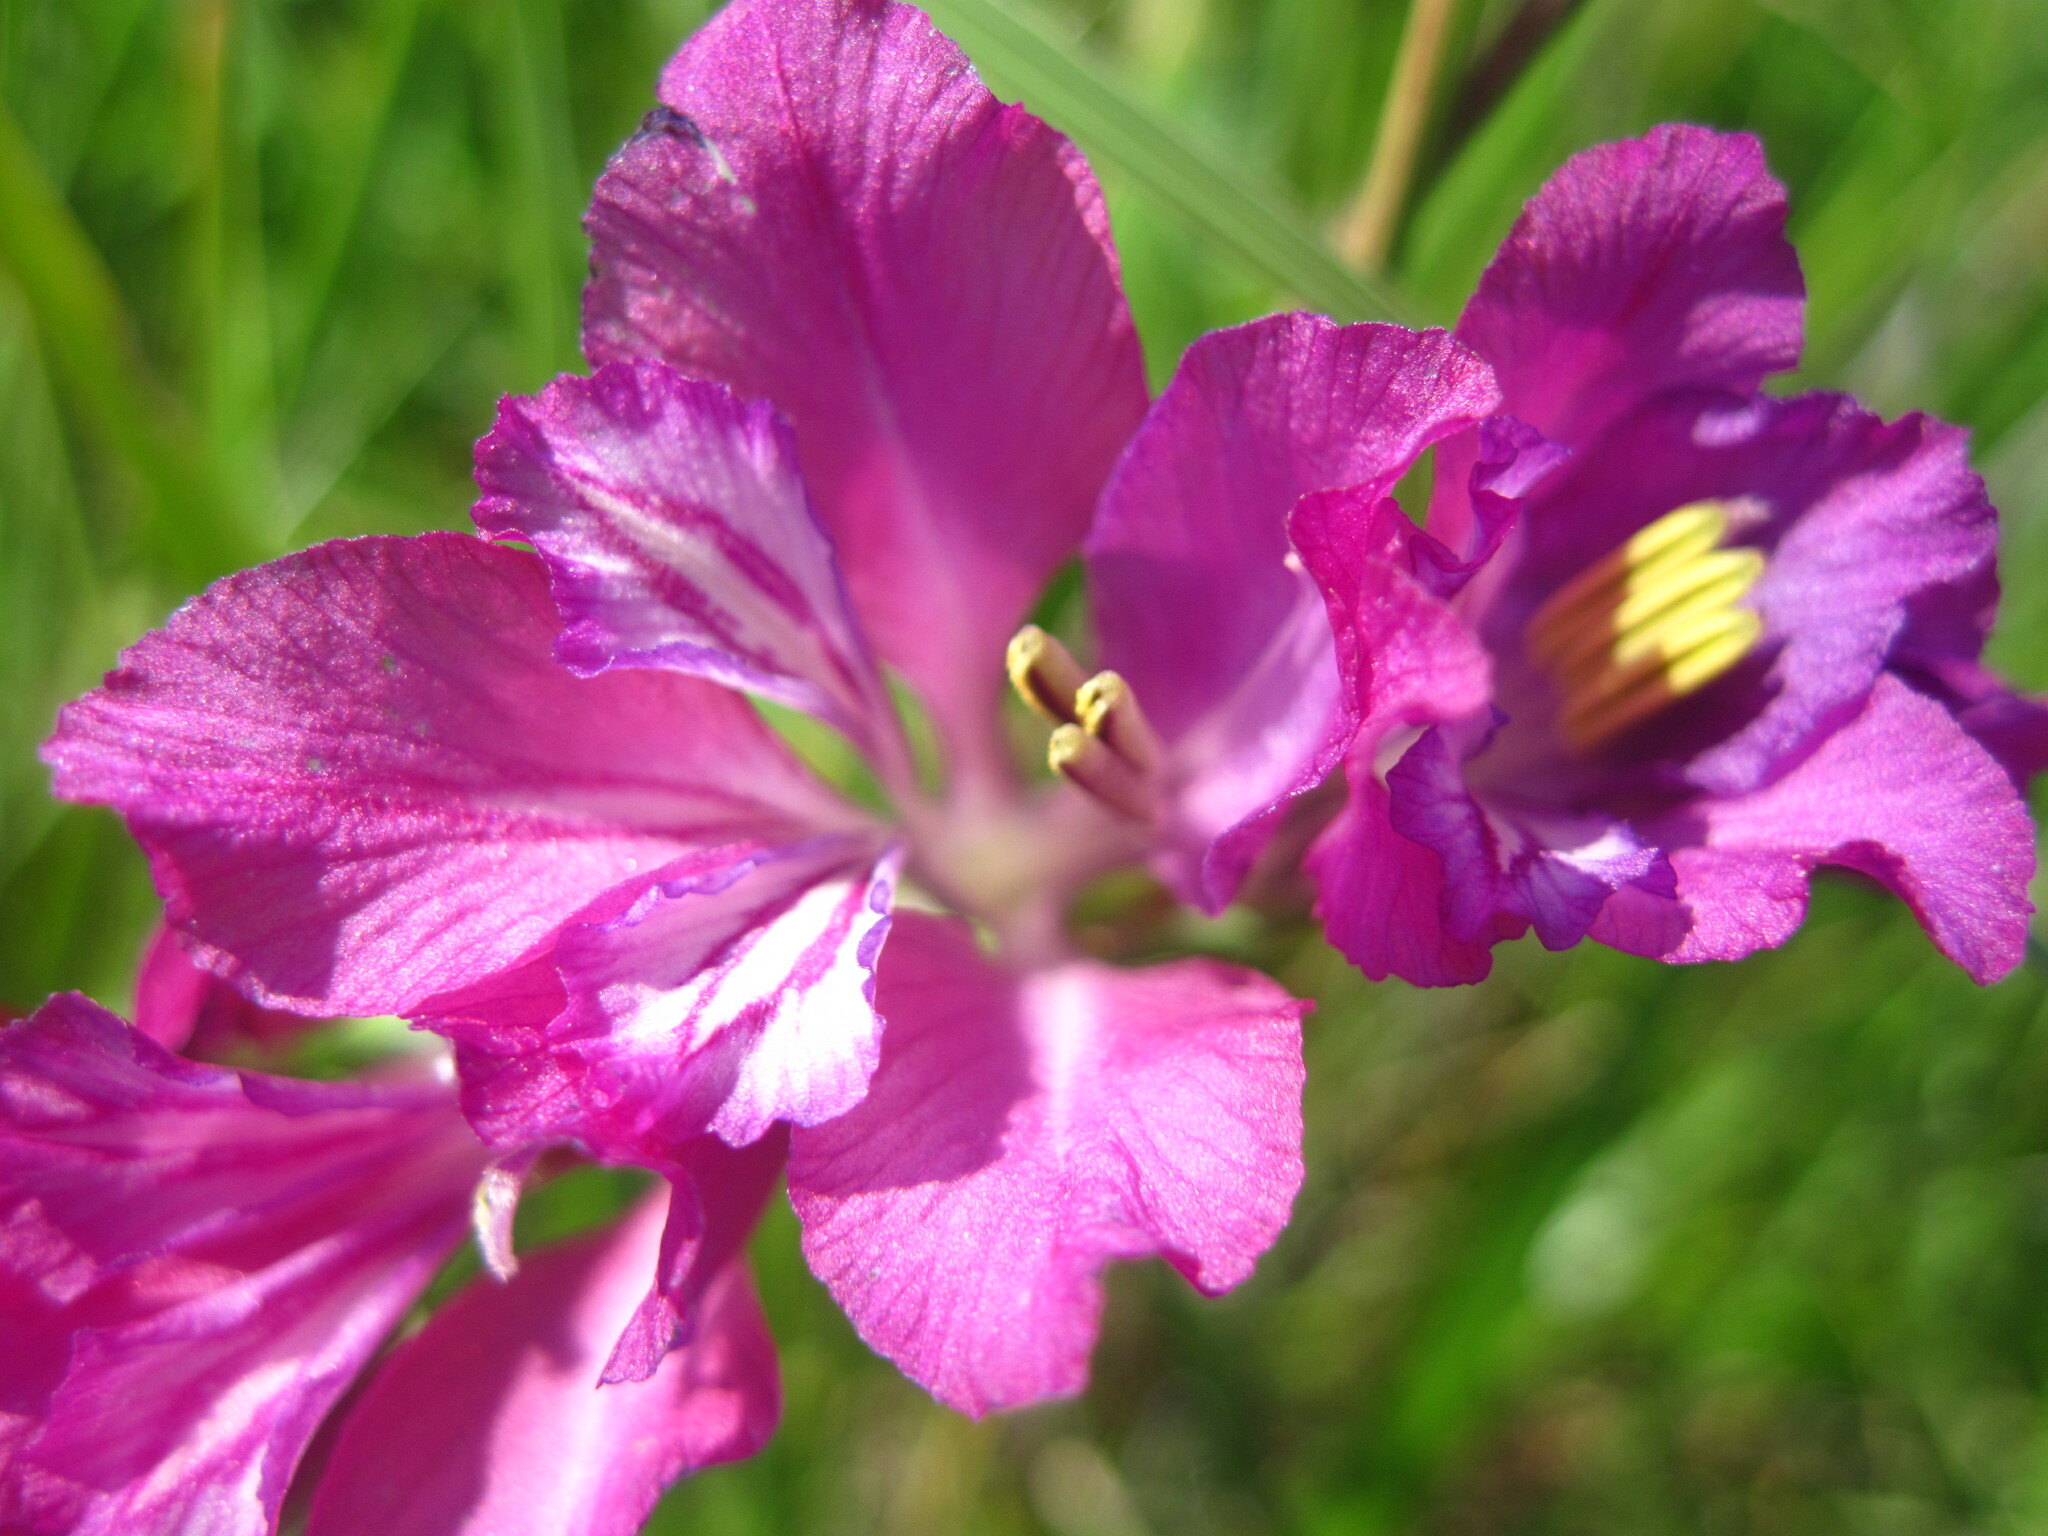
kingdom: Plantae
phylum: Tracheophyta
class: Liliopsida
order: Asparagales
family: Iridaceae
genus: Gladiolus
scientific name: Gladiolus tenuis
